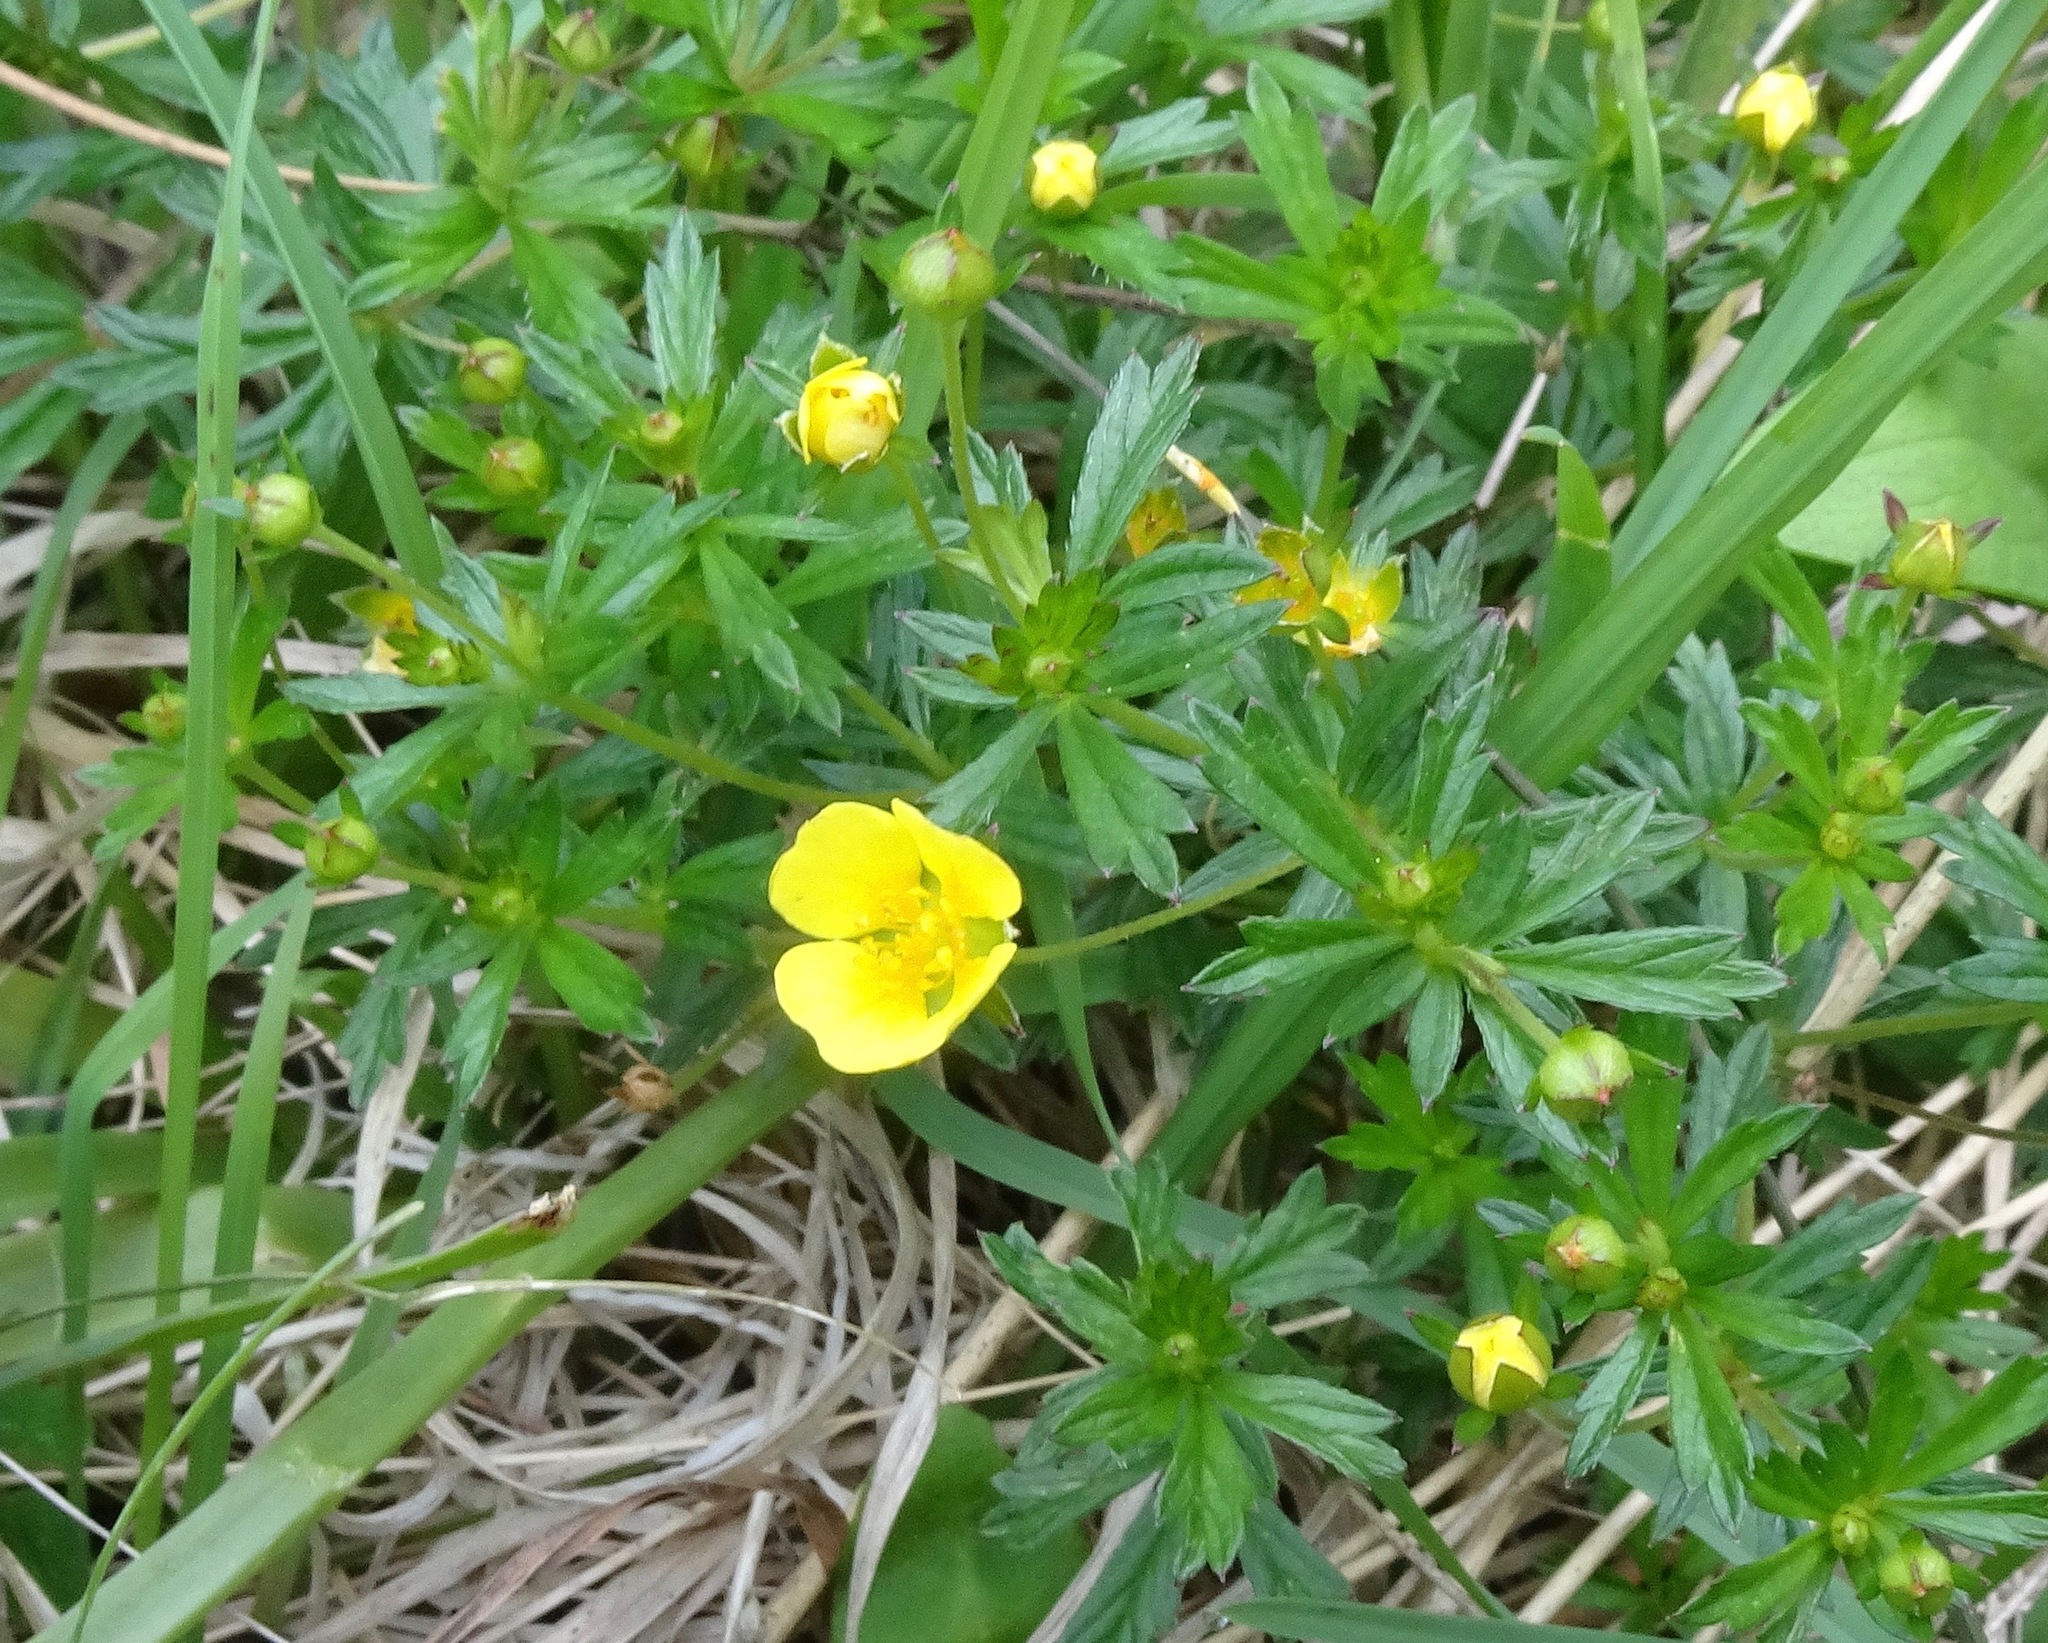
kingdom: Plantae
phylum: Tracheophyta
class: Magnoliopsida
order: Rosales
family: Rosaceae
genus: Potentilla
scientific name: Potentilla erecta
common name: Tormentil
